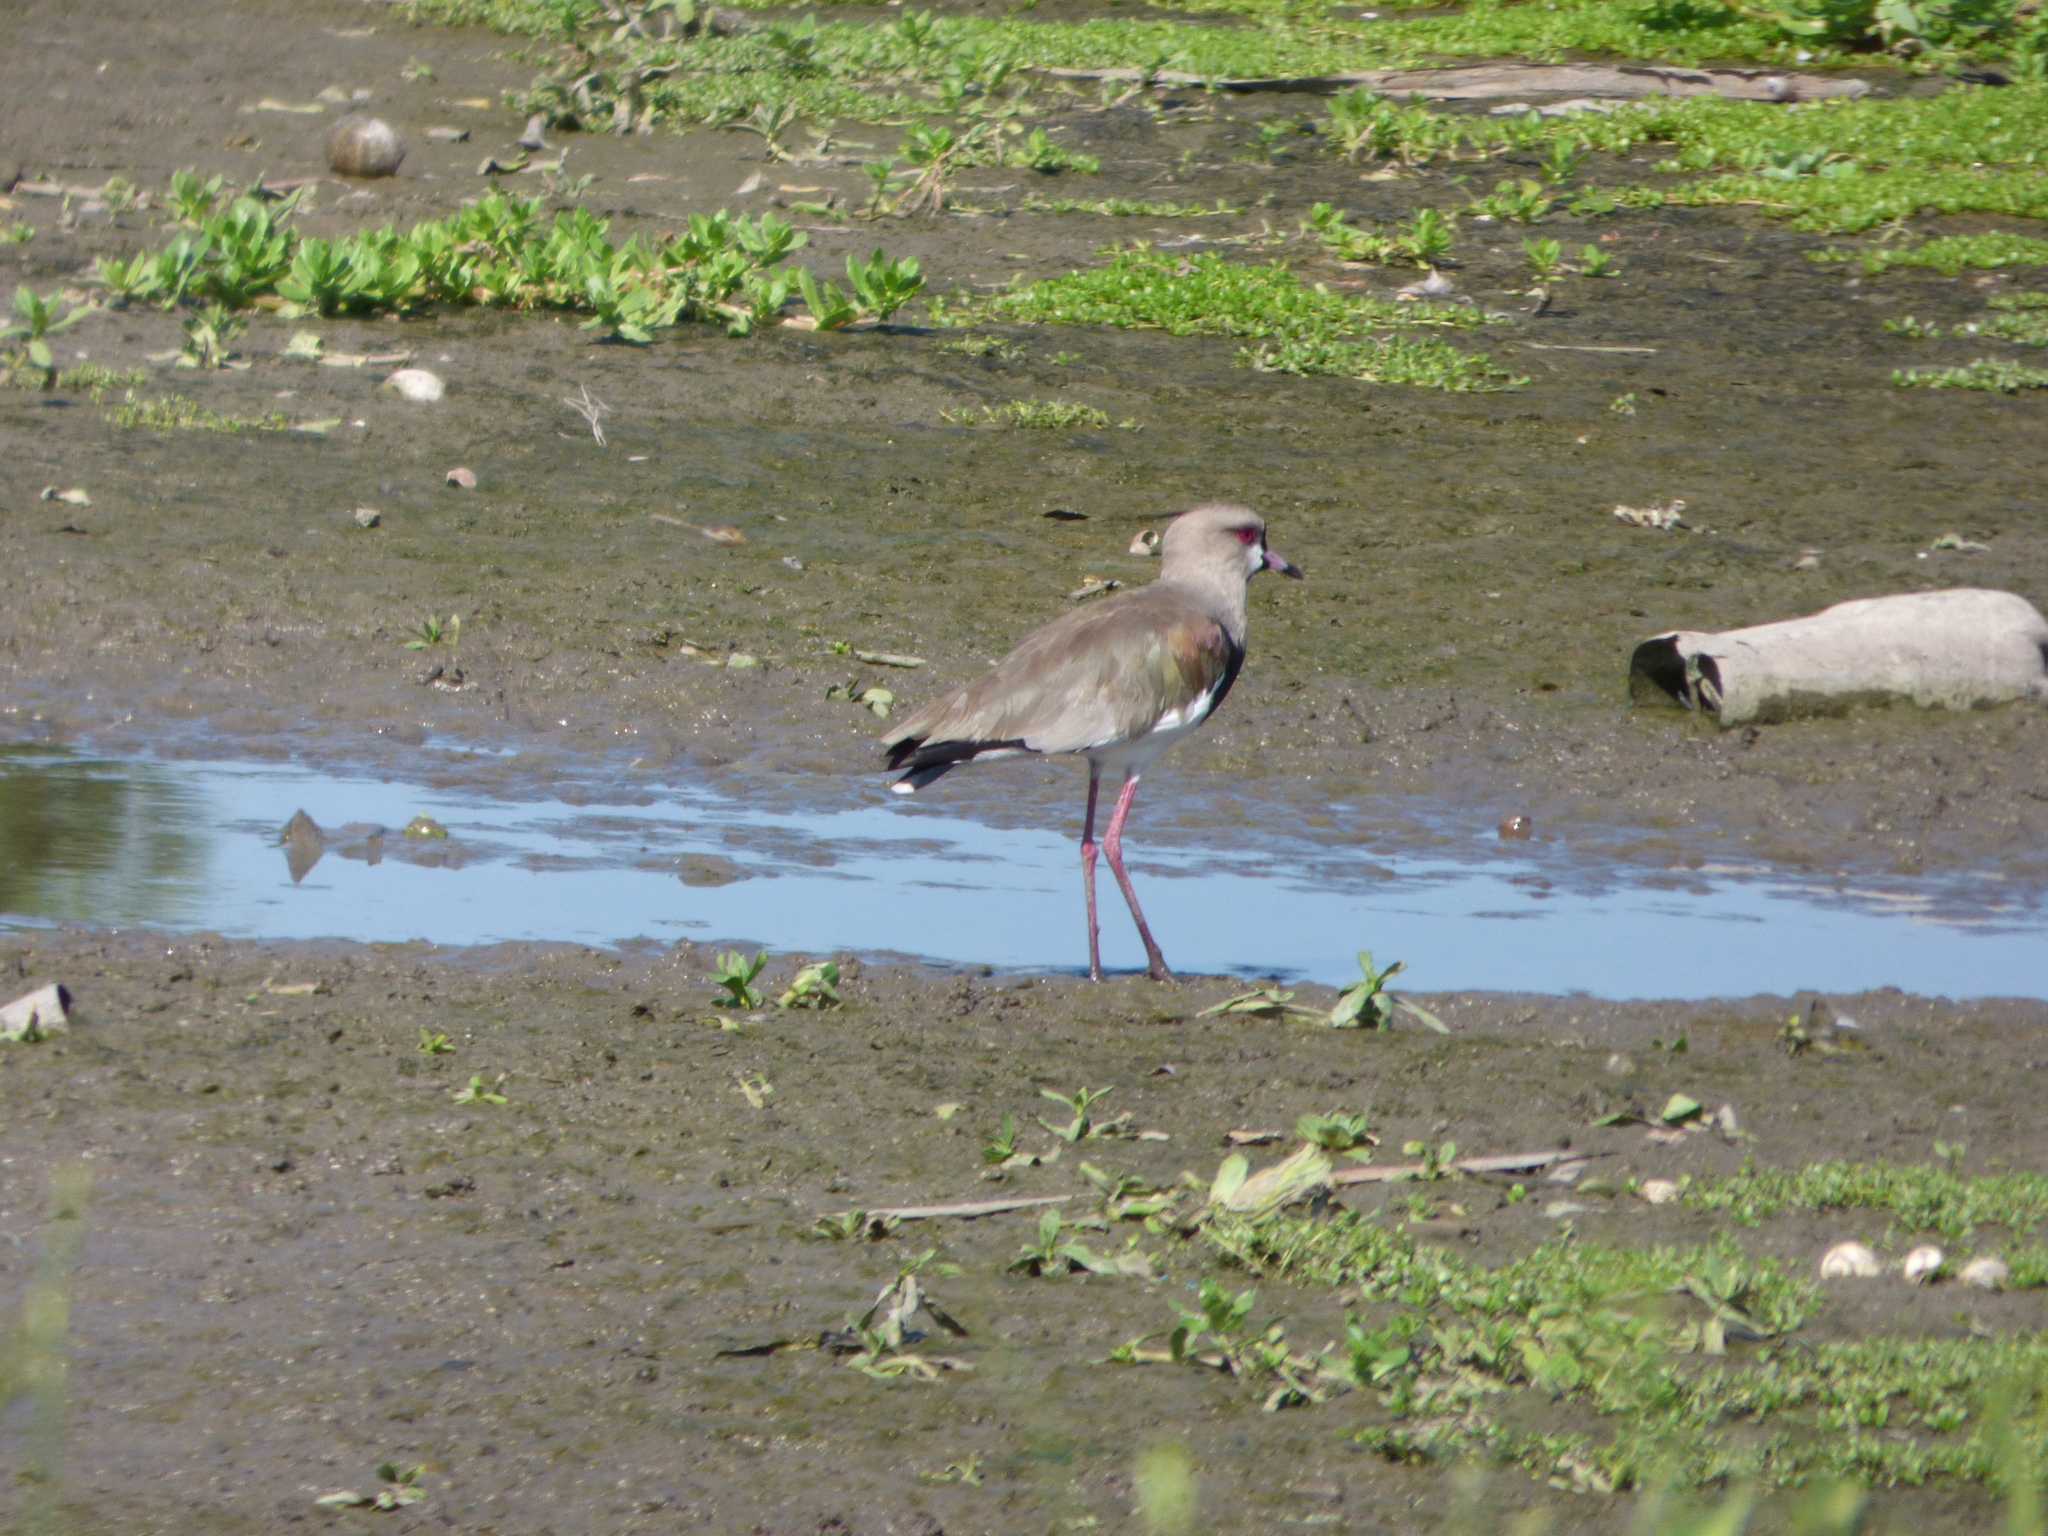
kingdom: Animalia
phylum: Chordata
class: Aves
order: Charadriiformes
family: Charadriidae
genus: Vanellus
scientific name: Vanellus chilensis
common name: Southern lapwing
